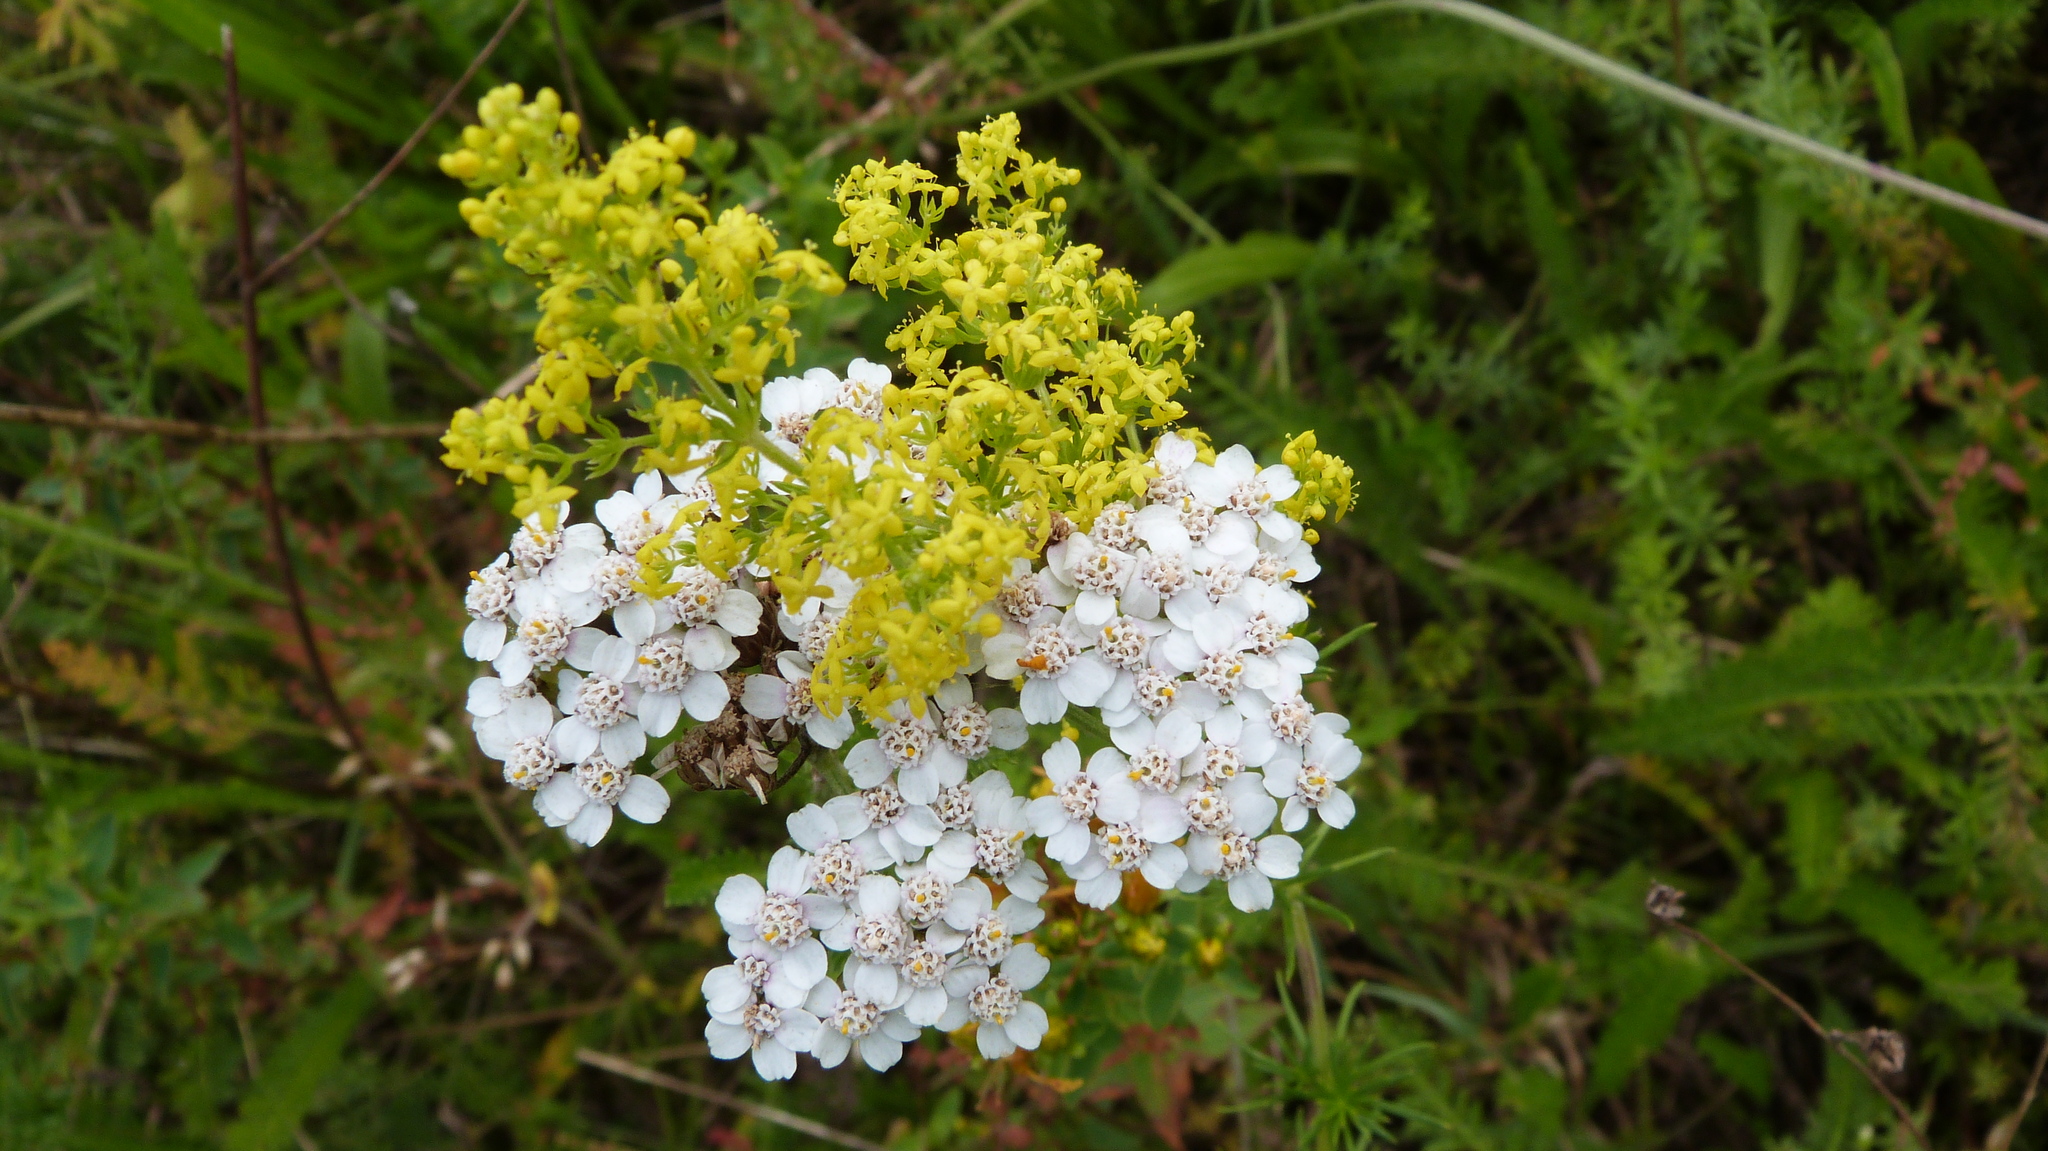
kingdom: Plantae
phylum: Tracheophyta
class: Magnoliopsida
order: Gentianales
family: Rubiaceae
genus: Galium
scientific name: Galium verum
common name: Lady's bedstraw
